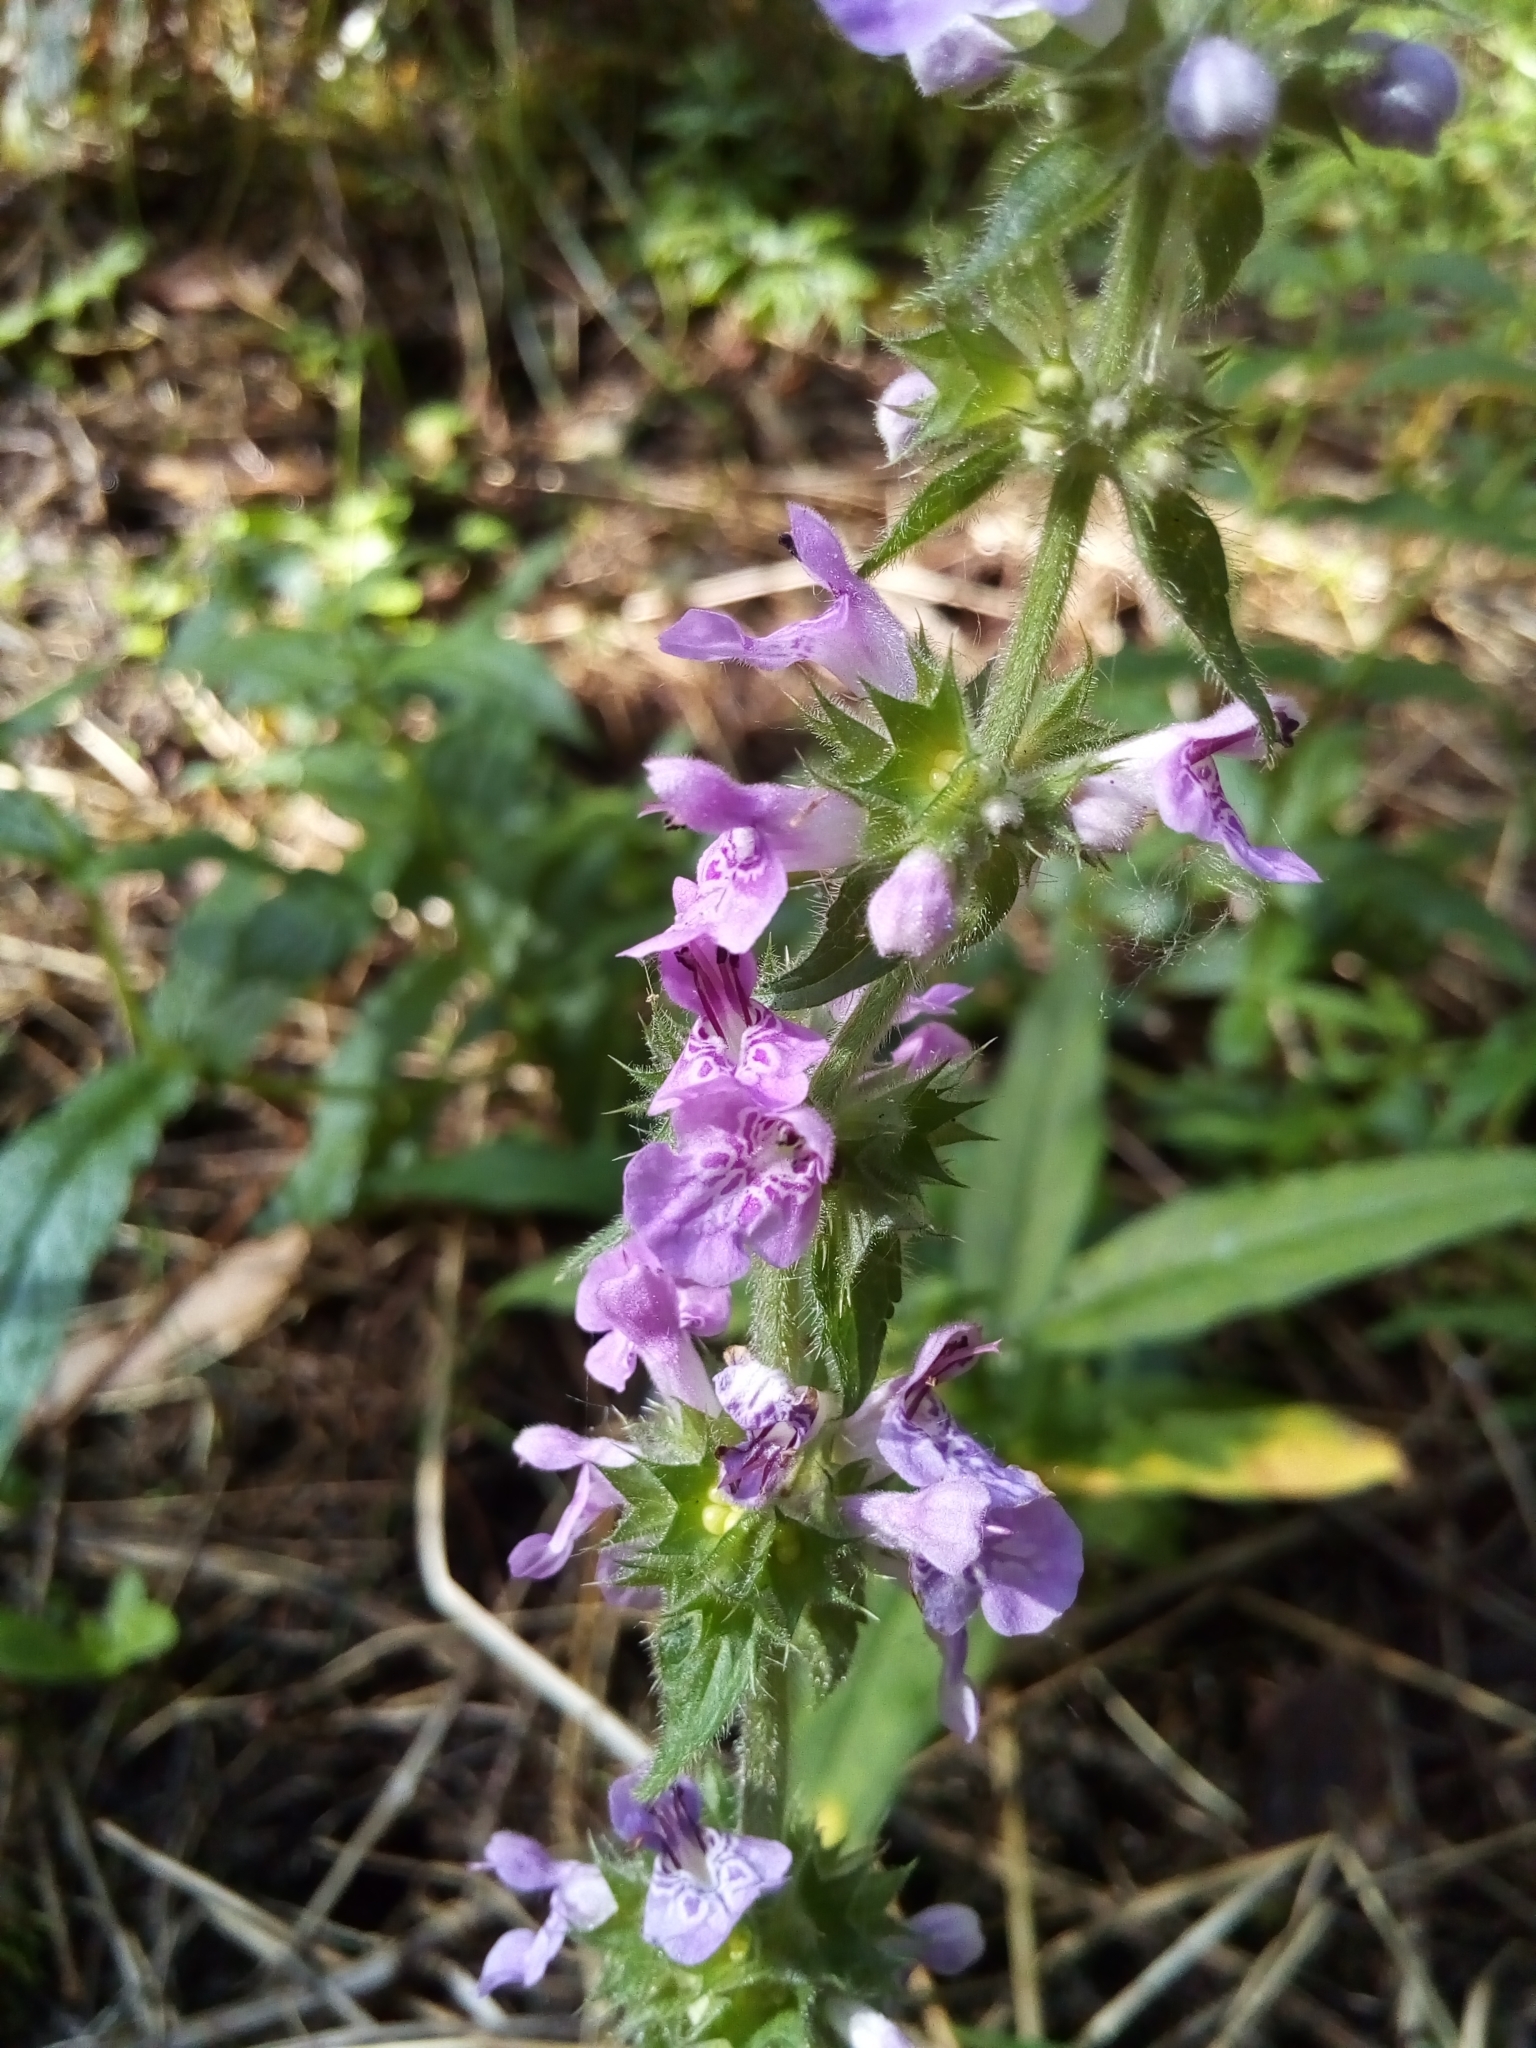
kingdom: Plantae
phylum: Tracheophyta
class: Magnoliopsida
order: Lamiales
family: Lamiaceae
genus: Stachys
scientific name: Stachys palustris
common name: Marsh woundwort
